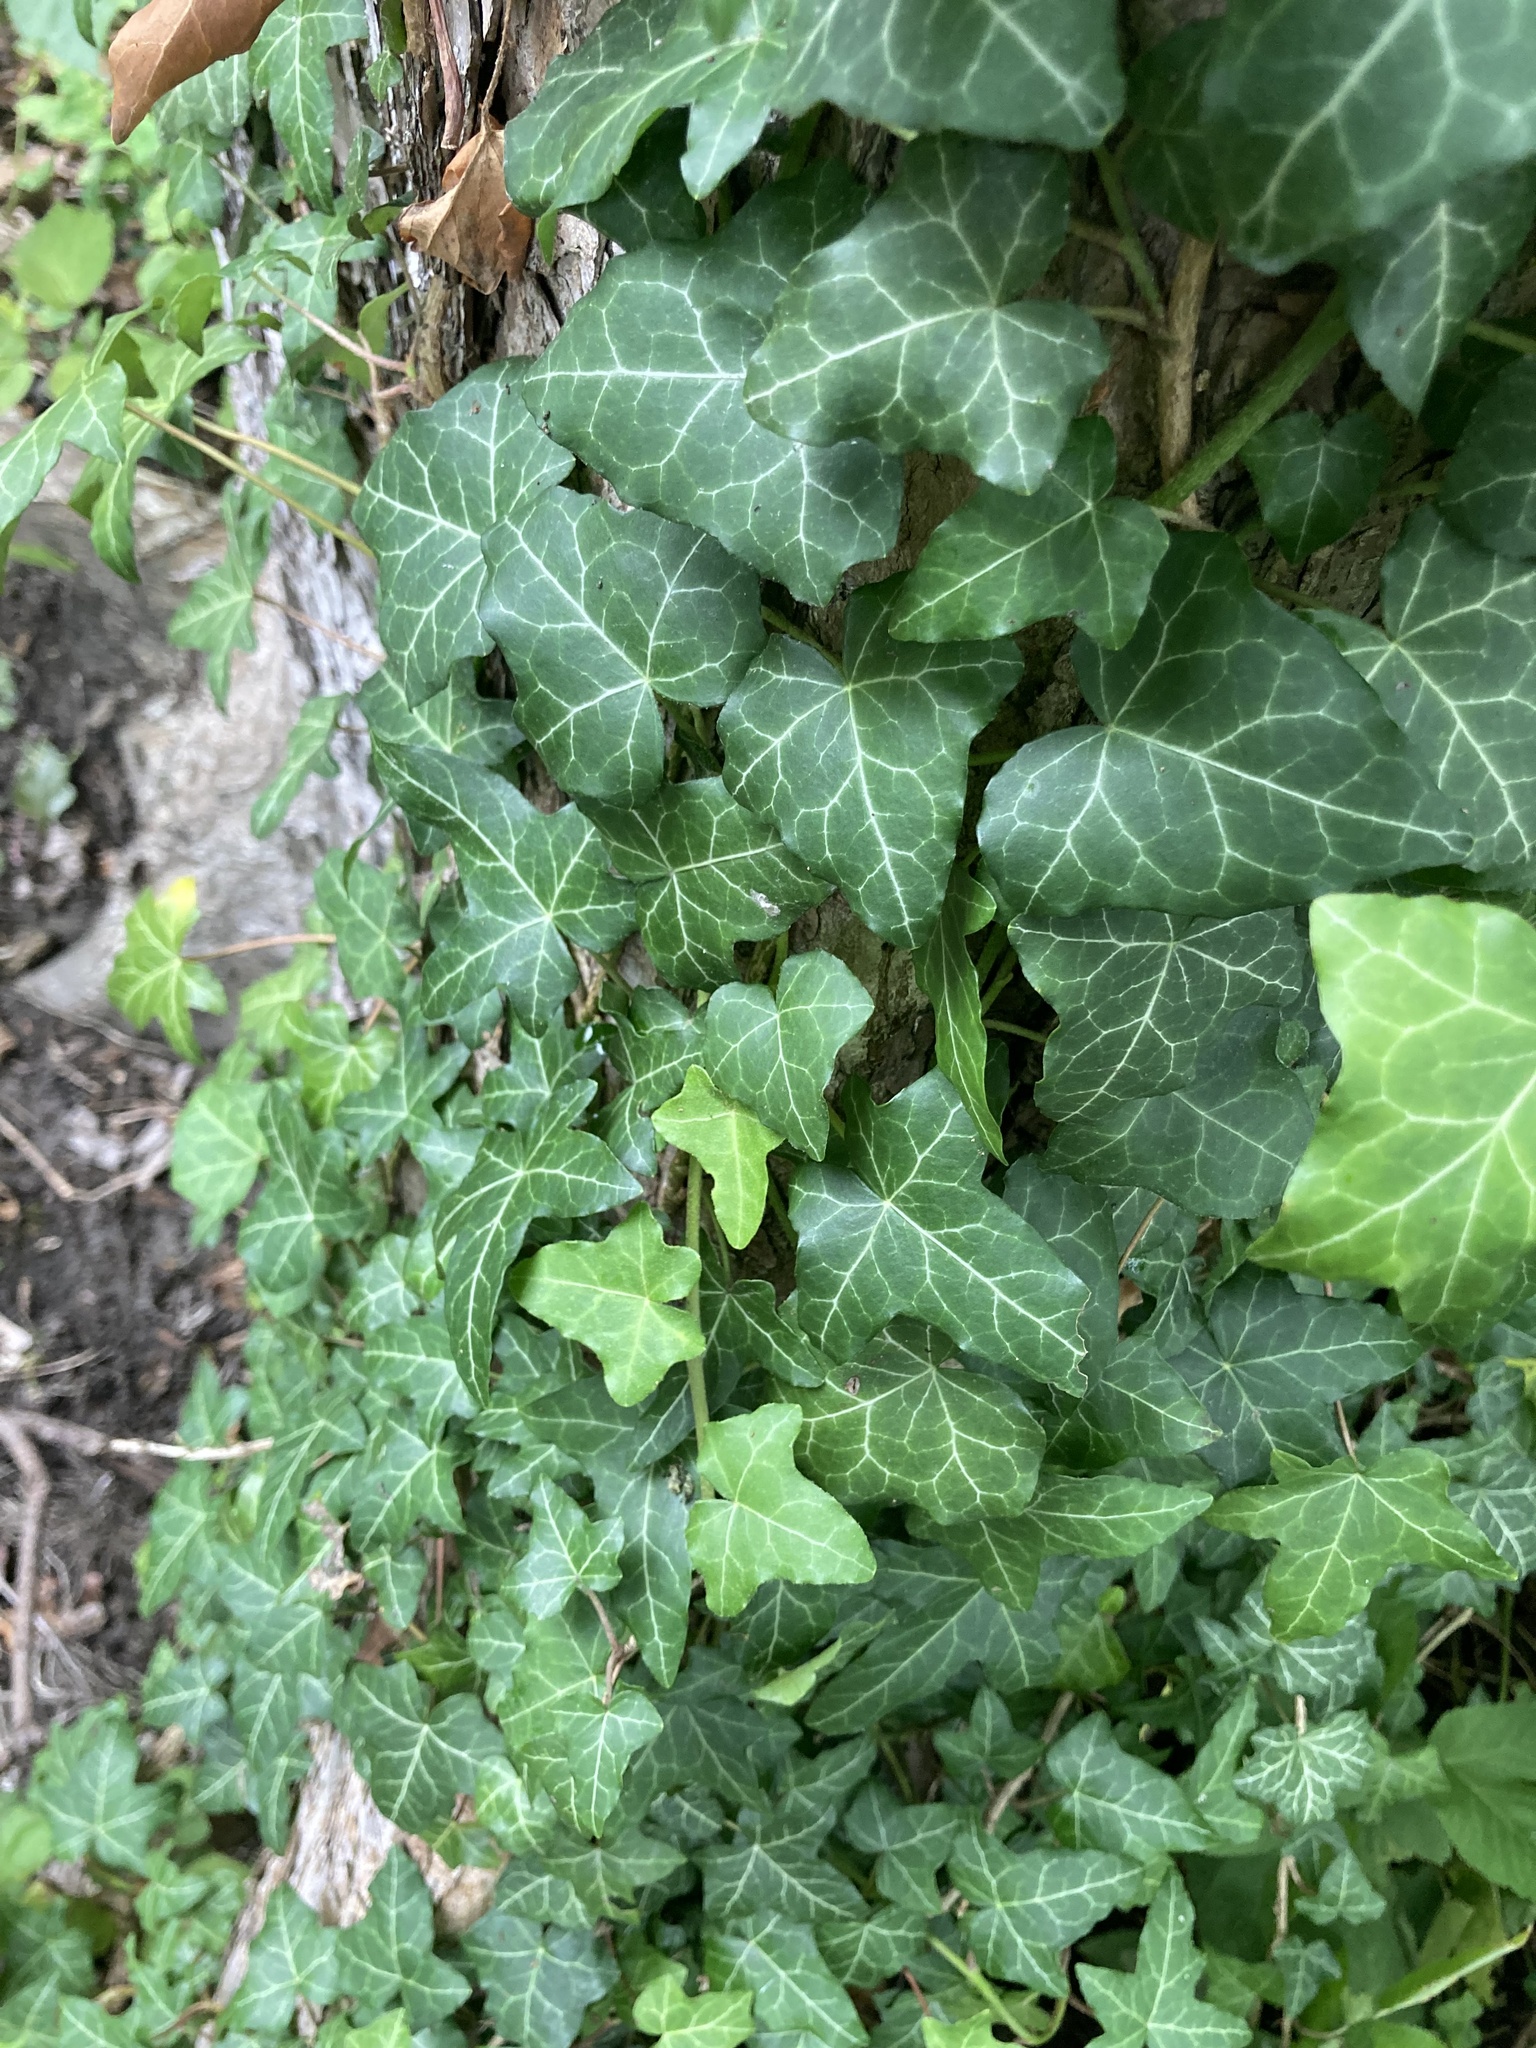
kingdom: Plantae
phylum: Tracheophyta
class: Magnoliopsida
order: Apiales
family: Araliaceae
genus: Hedera
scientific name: Hedera helix
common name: Ivy
